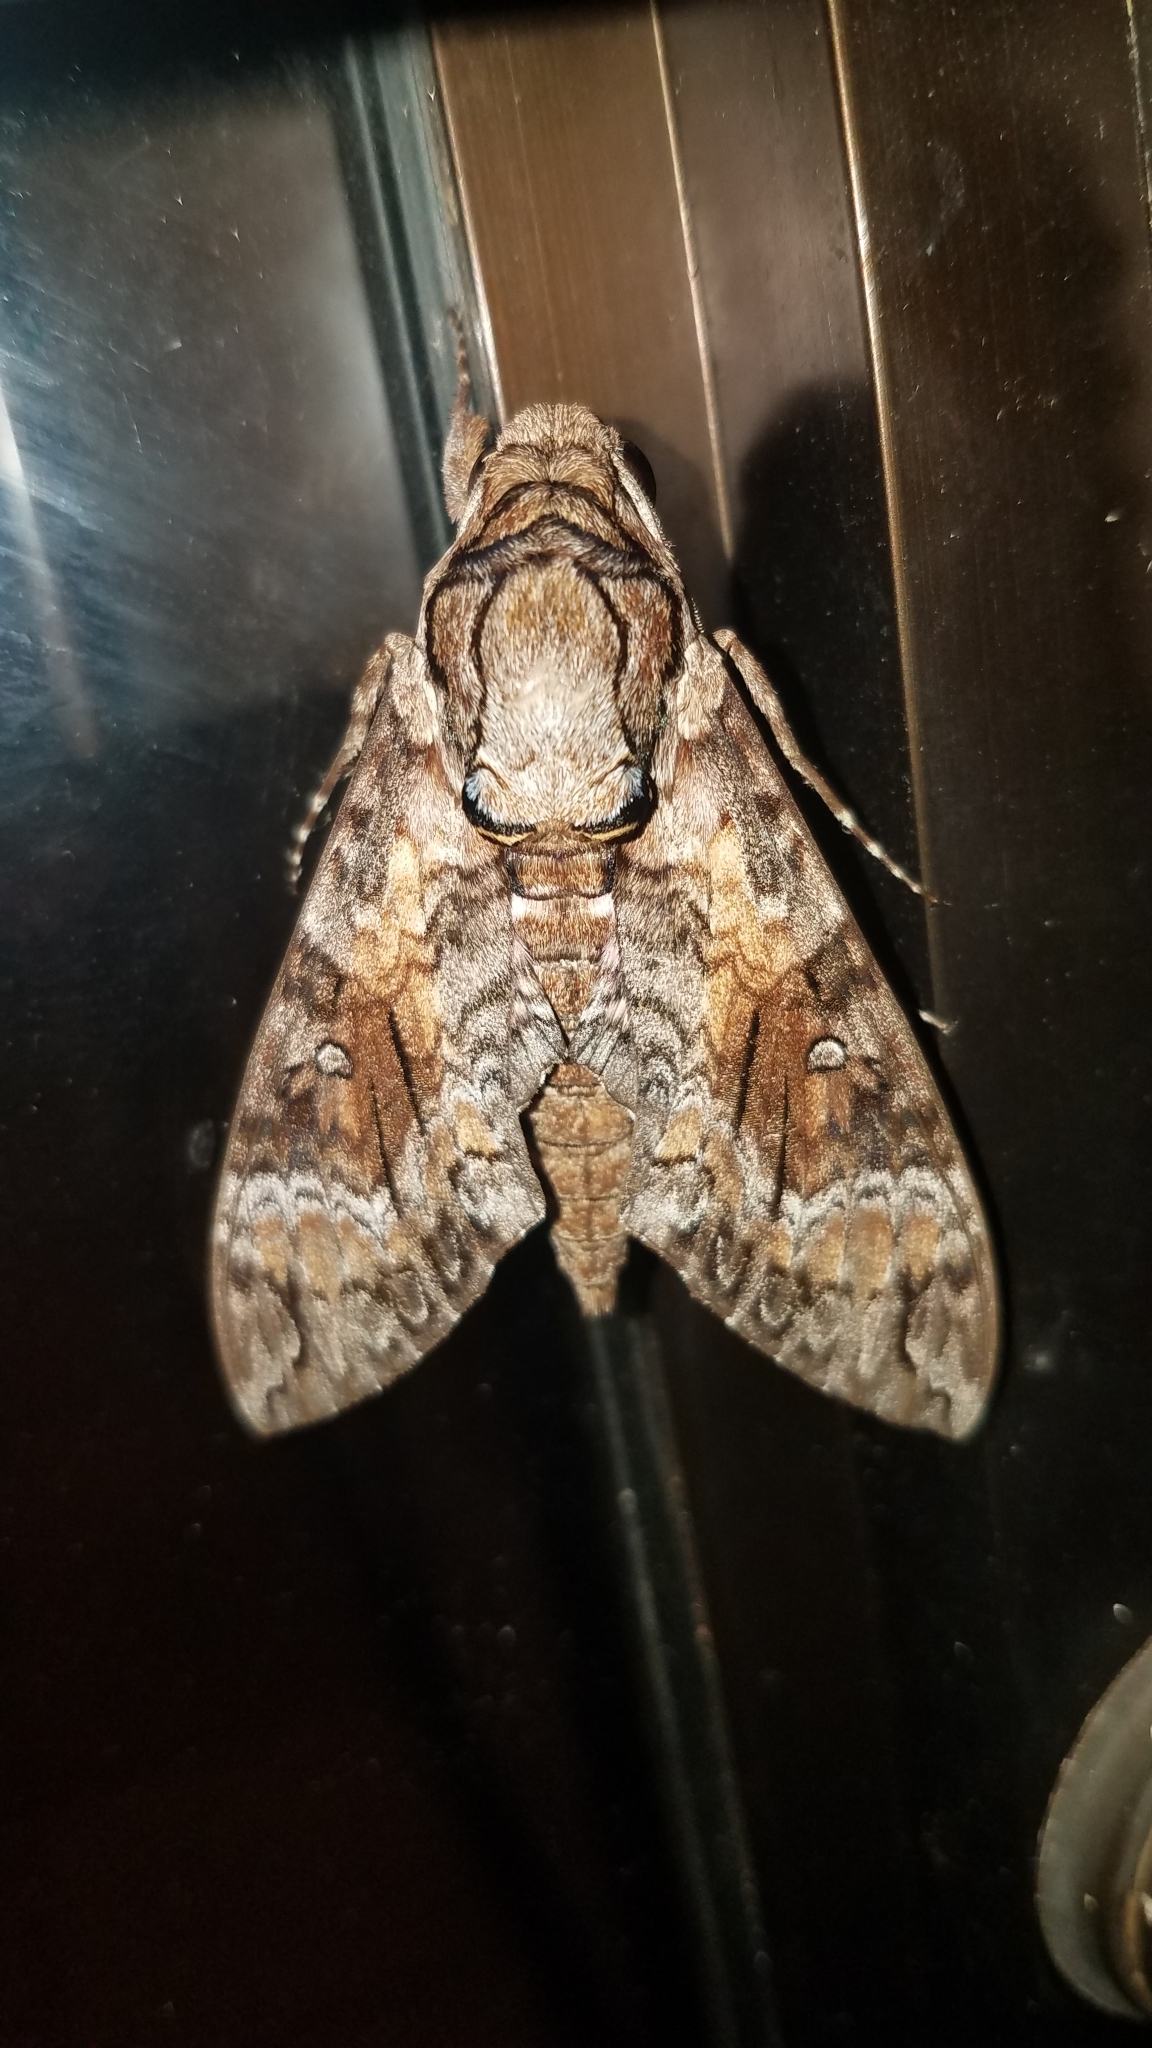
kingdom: Animalia
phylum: Arthropoda
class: Insecta
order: Lepidoptera
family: Sphingidae
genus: Agrius
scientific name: Agrius cingulata
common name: Pink-spotted hawkmoth
